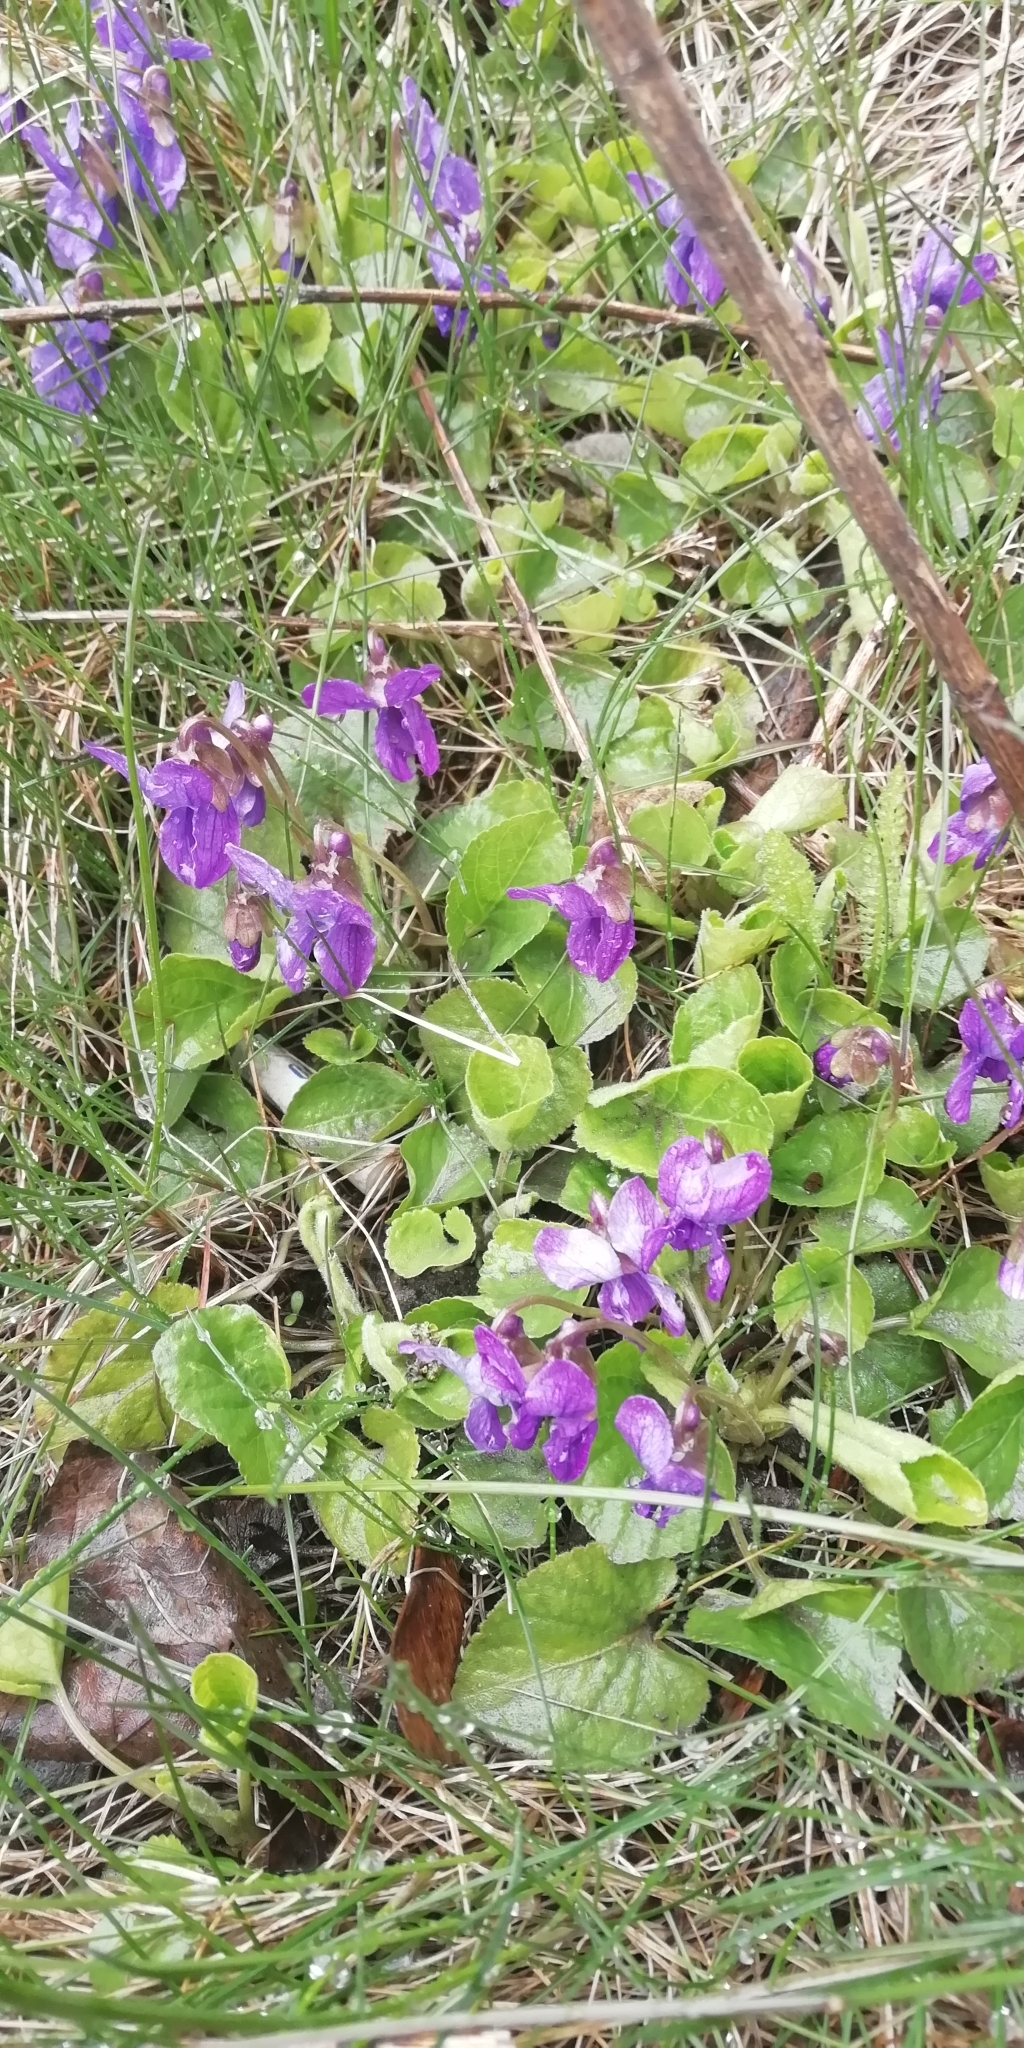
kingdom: Plantae
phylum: Tracheophyta
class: Magnoliopsida
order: Malpighiales
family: Violaceae
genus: Viola
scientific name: Viola odorata
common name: Sweet violet
